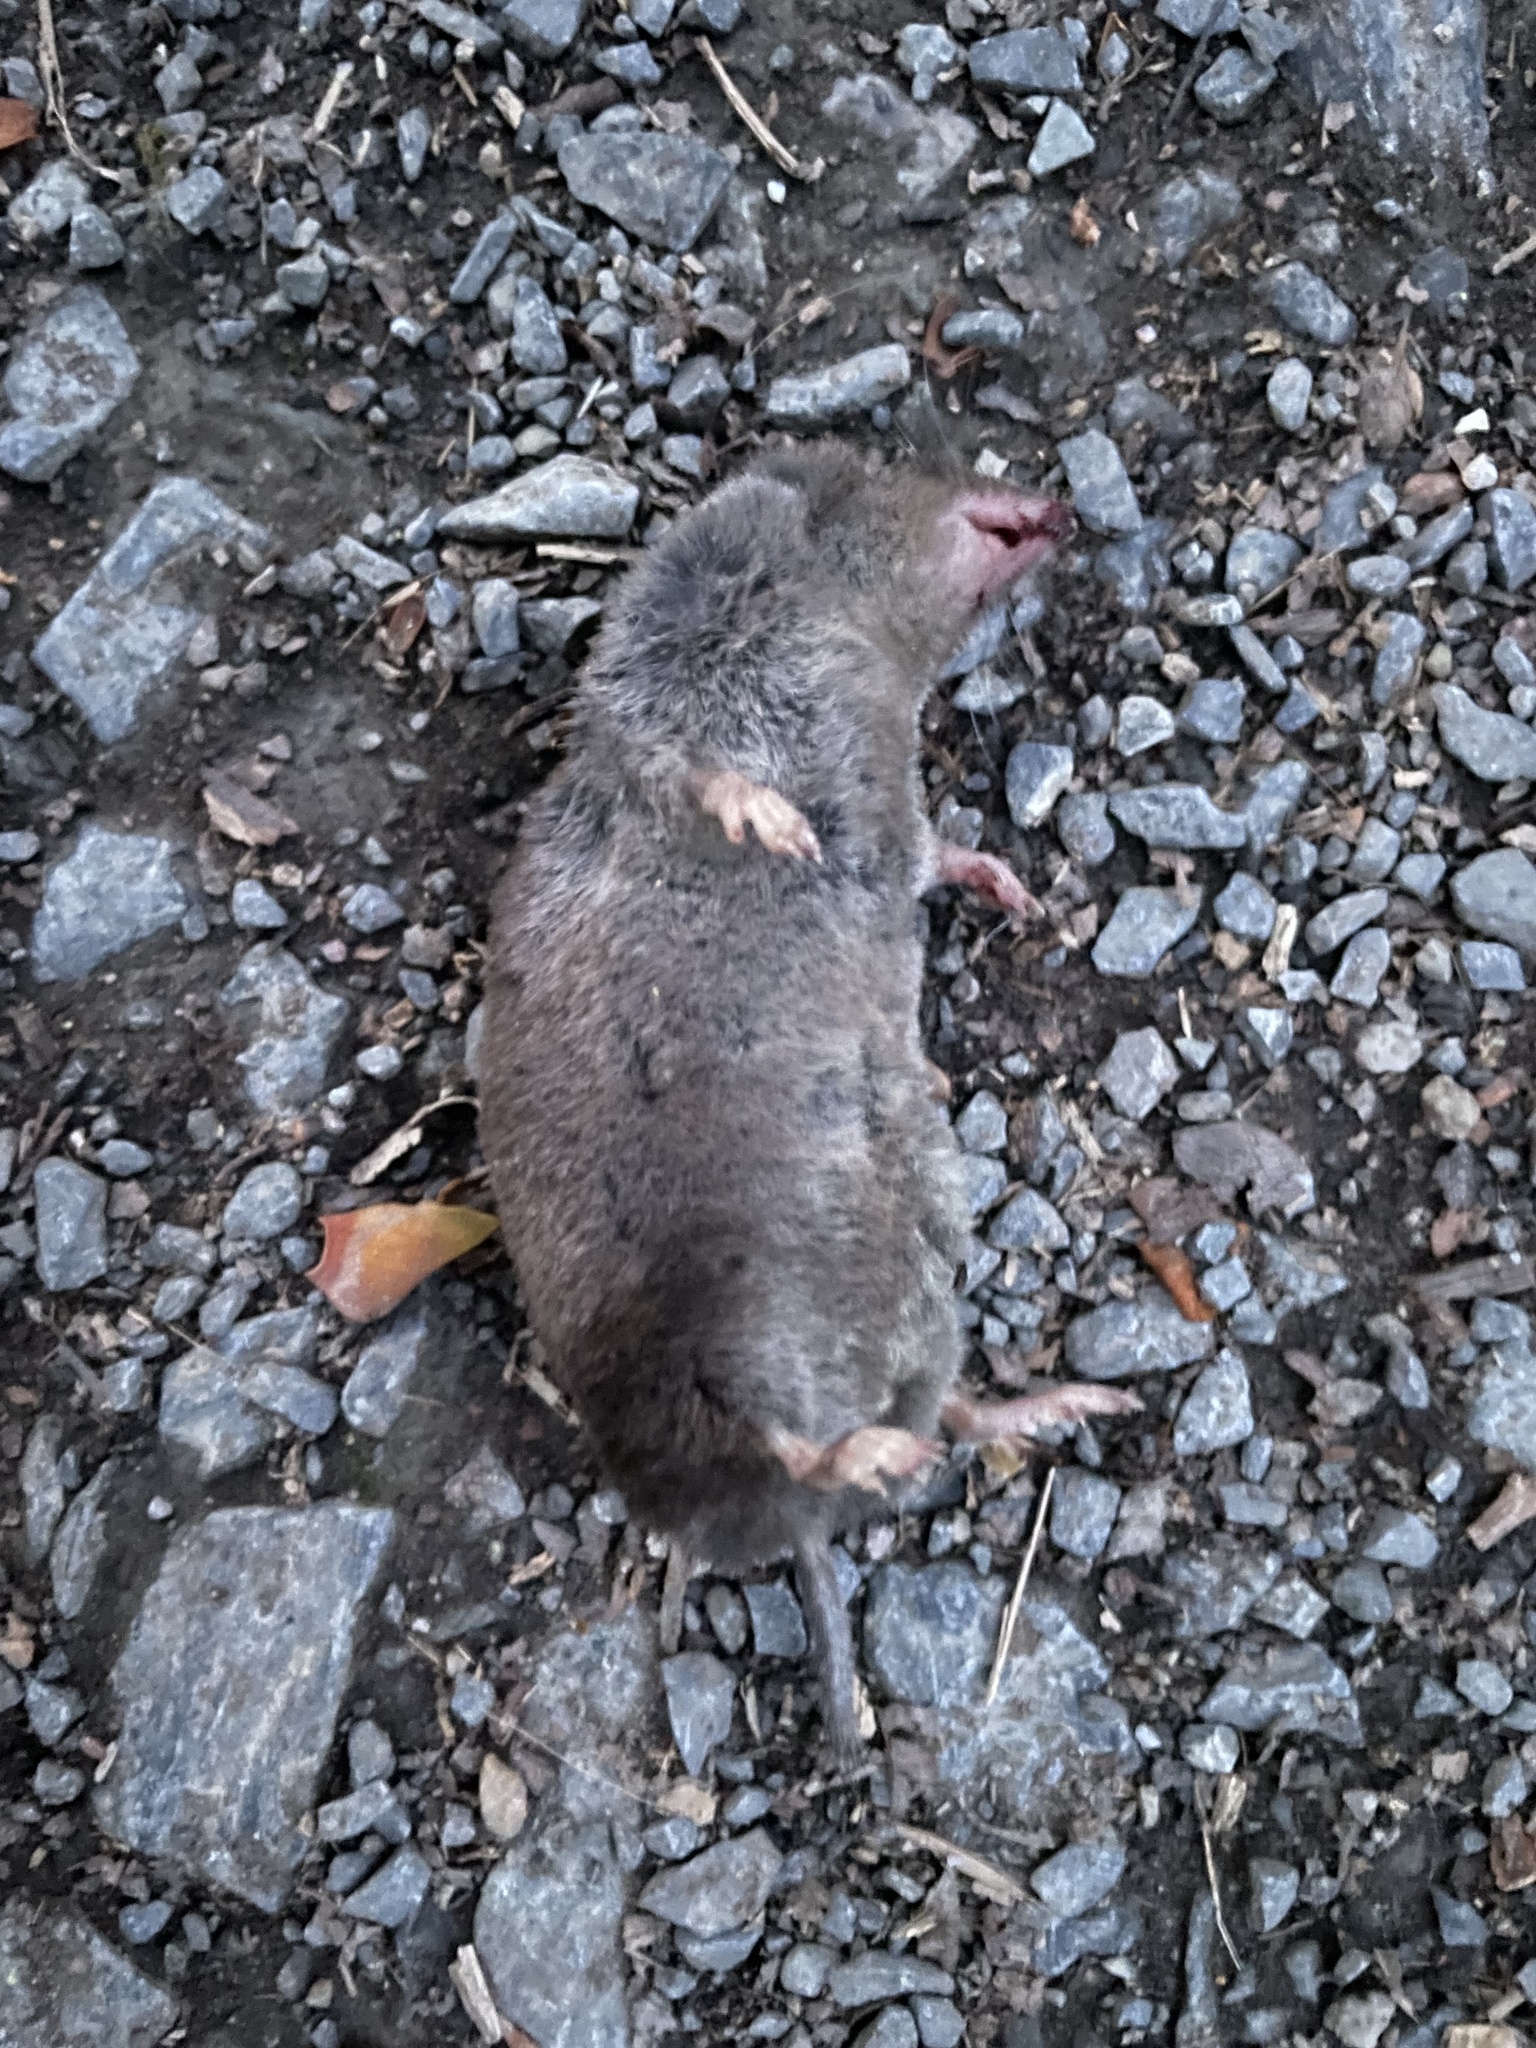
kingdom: Animalia
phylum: Chordata
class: Mammalia
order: Soricomorpha
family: Soricidae
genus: Blarina
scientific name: Blarina brevicauda
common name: Northern short-tailed shrew
